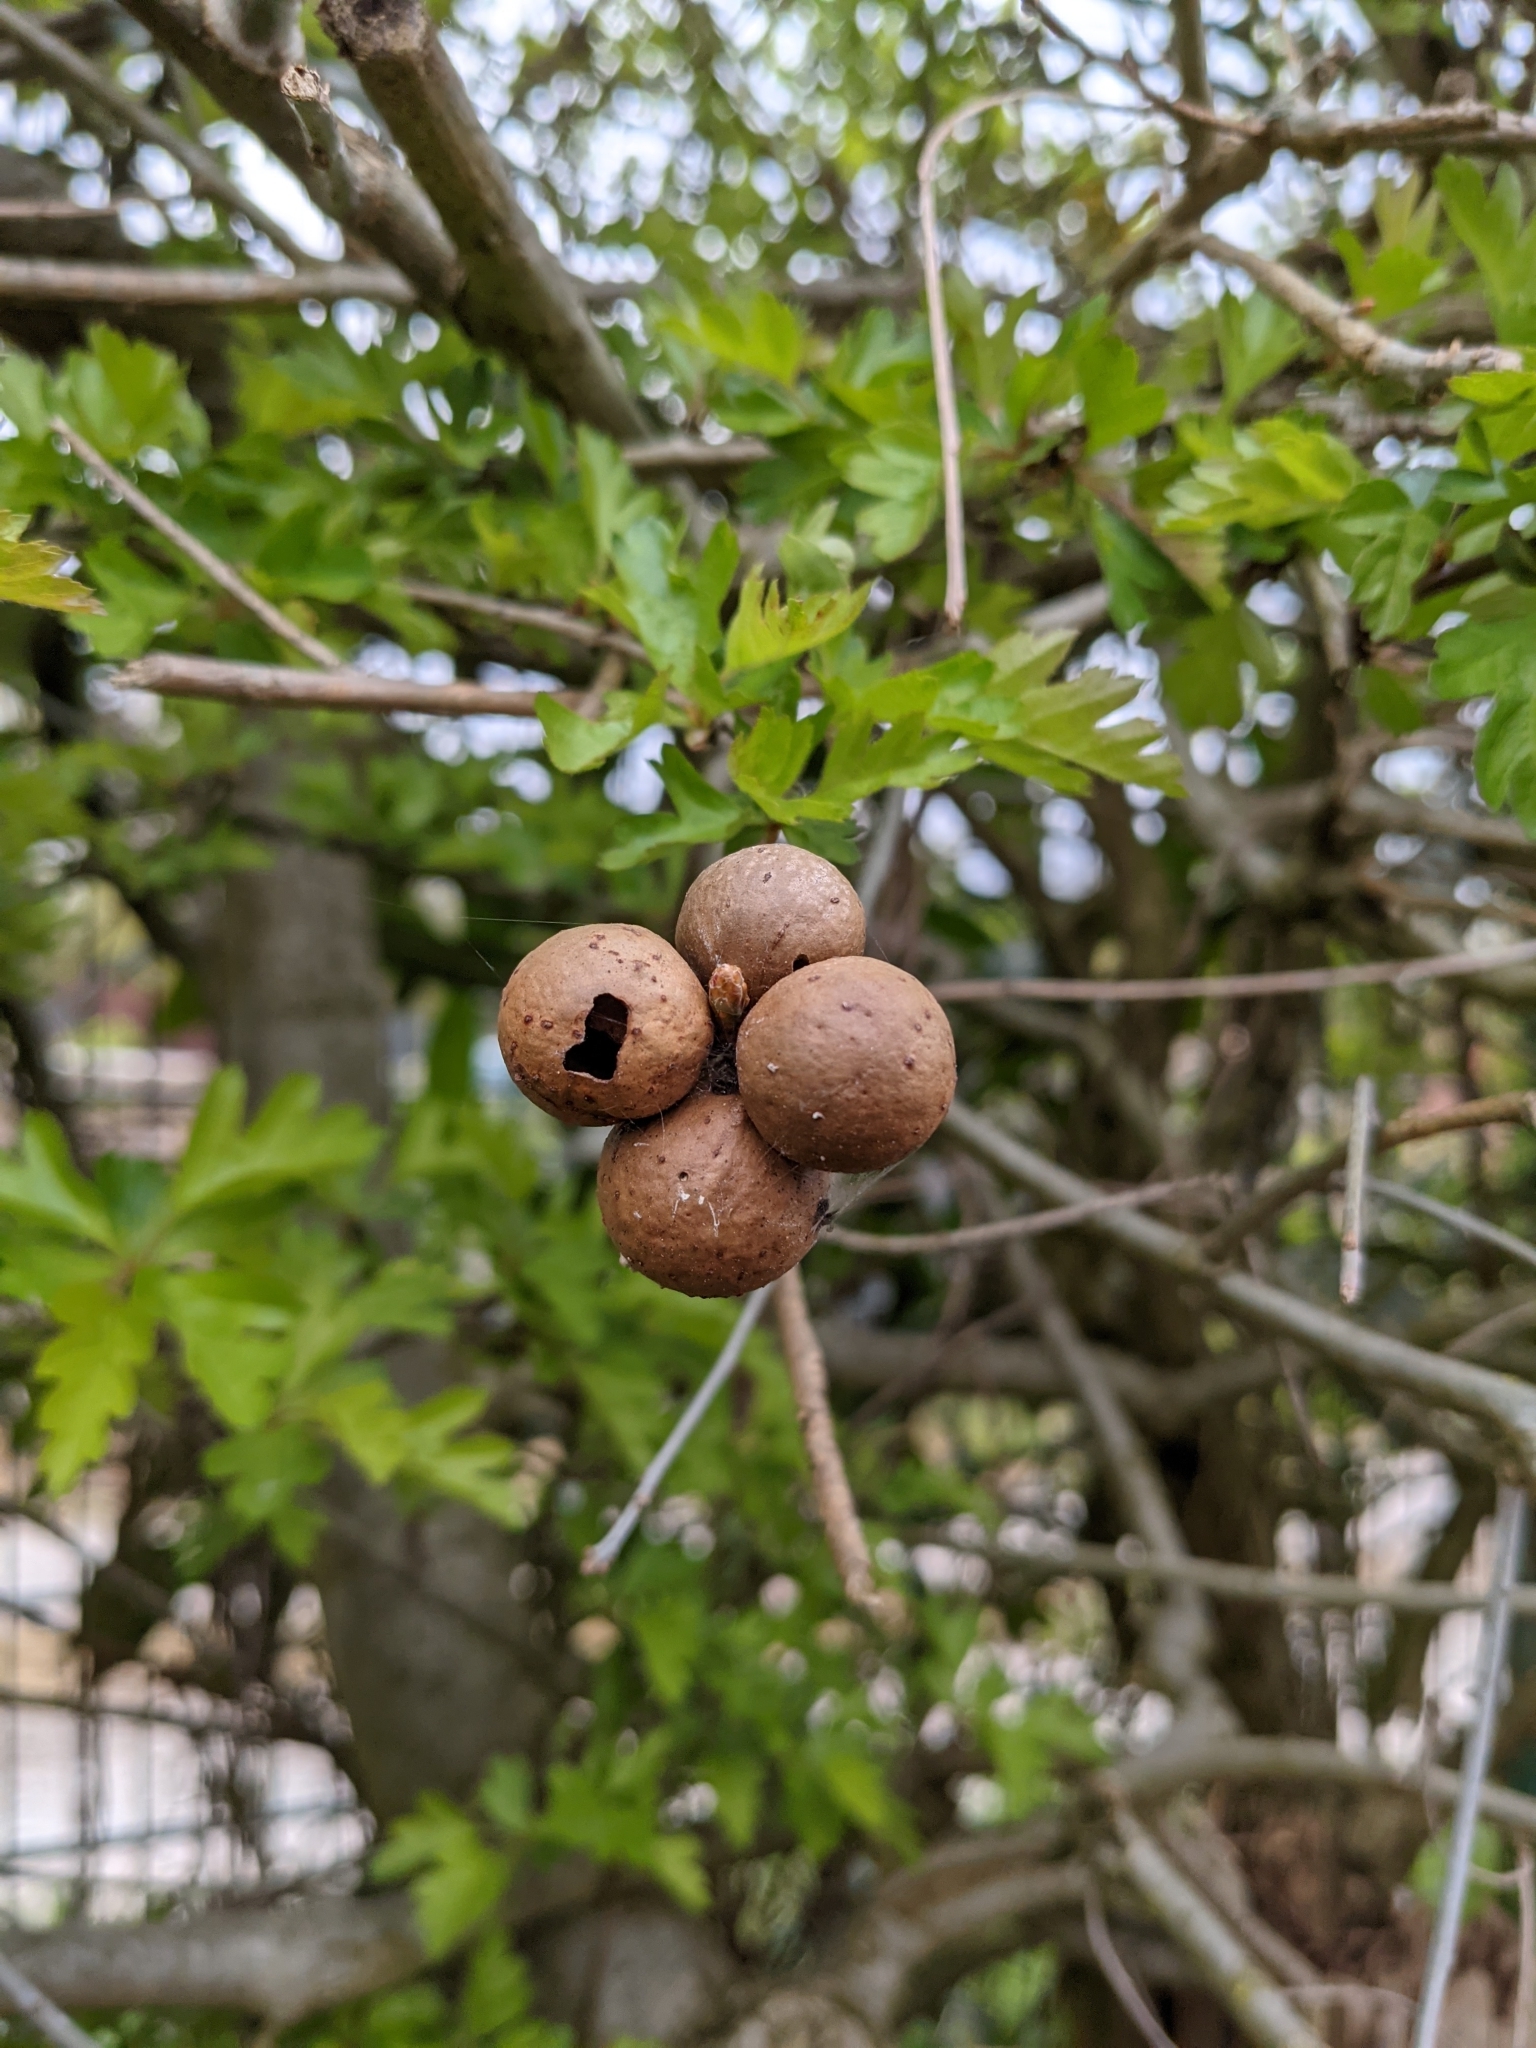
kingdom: Animalia
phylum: Arthropoda
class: Insecta
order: Hymenoptera
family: Cynipidae
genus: Andricus
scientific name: Andricus kollari
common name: Marble gall
